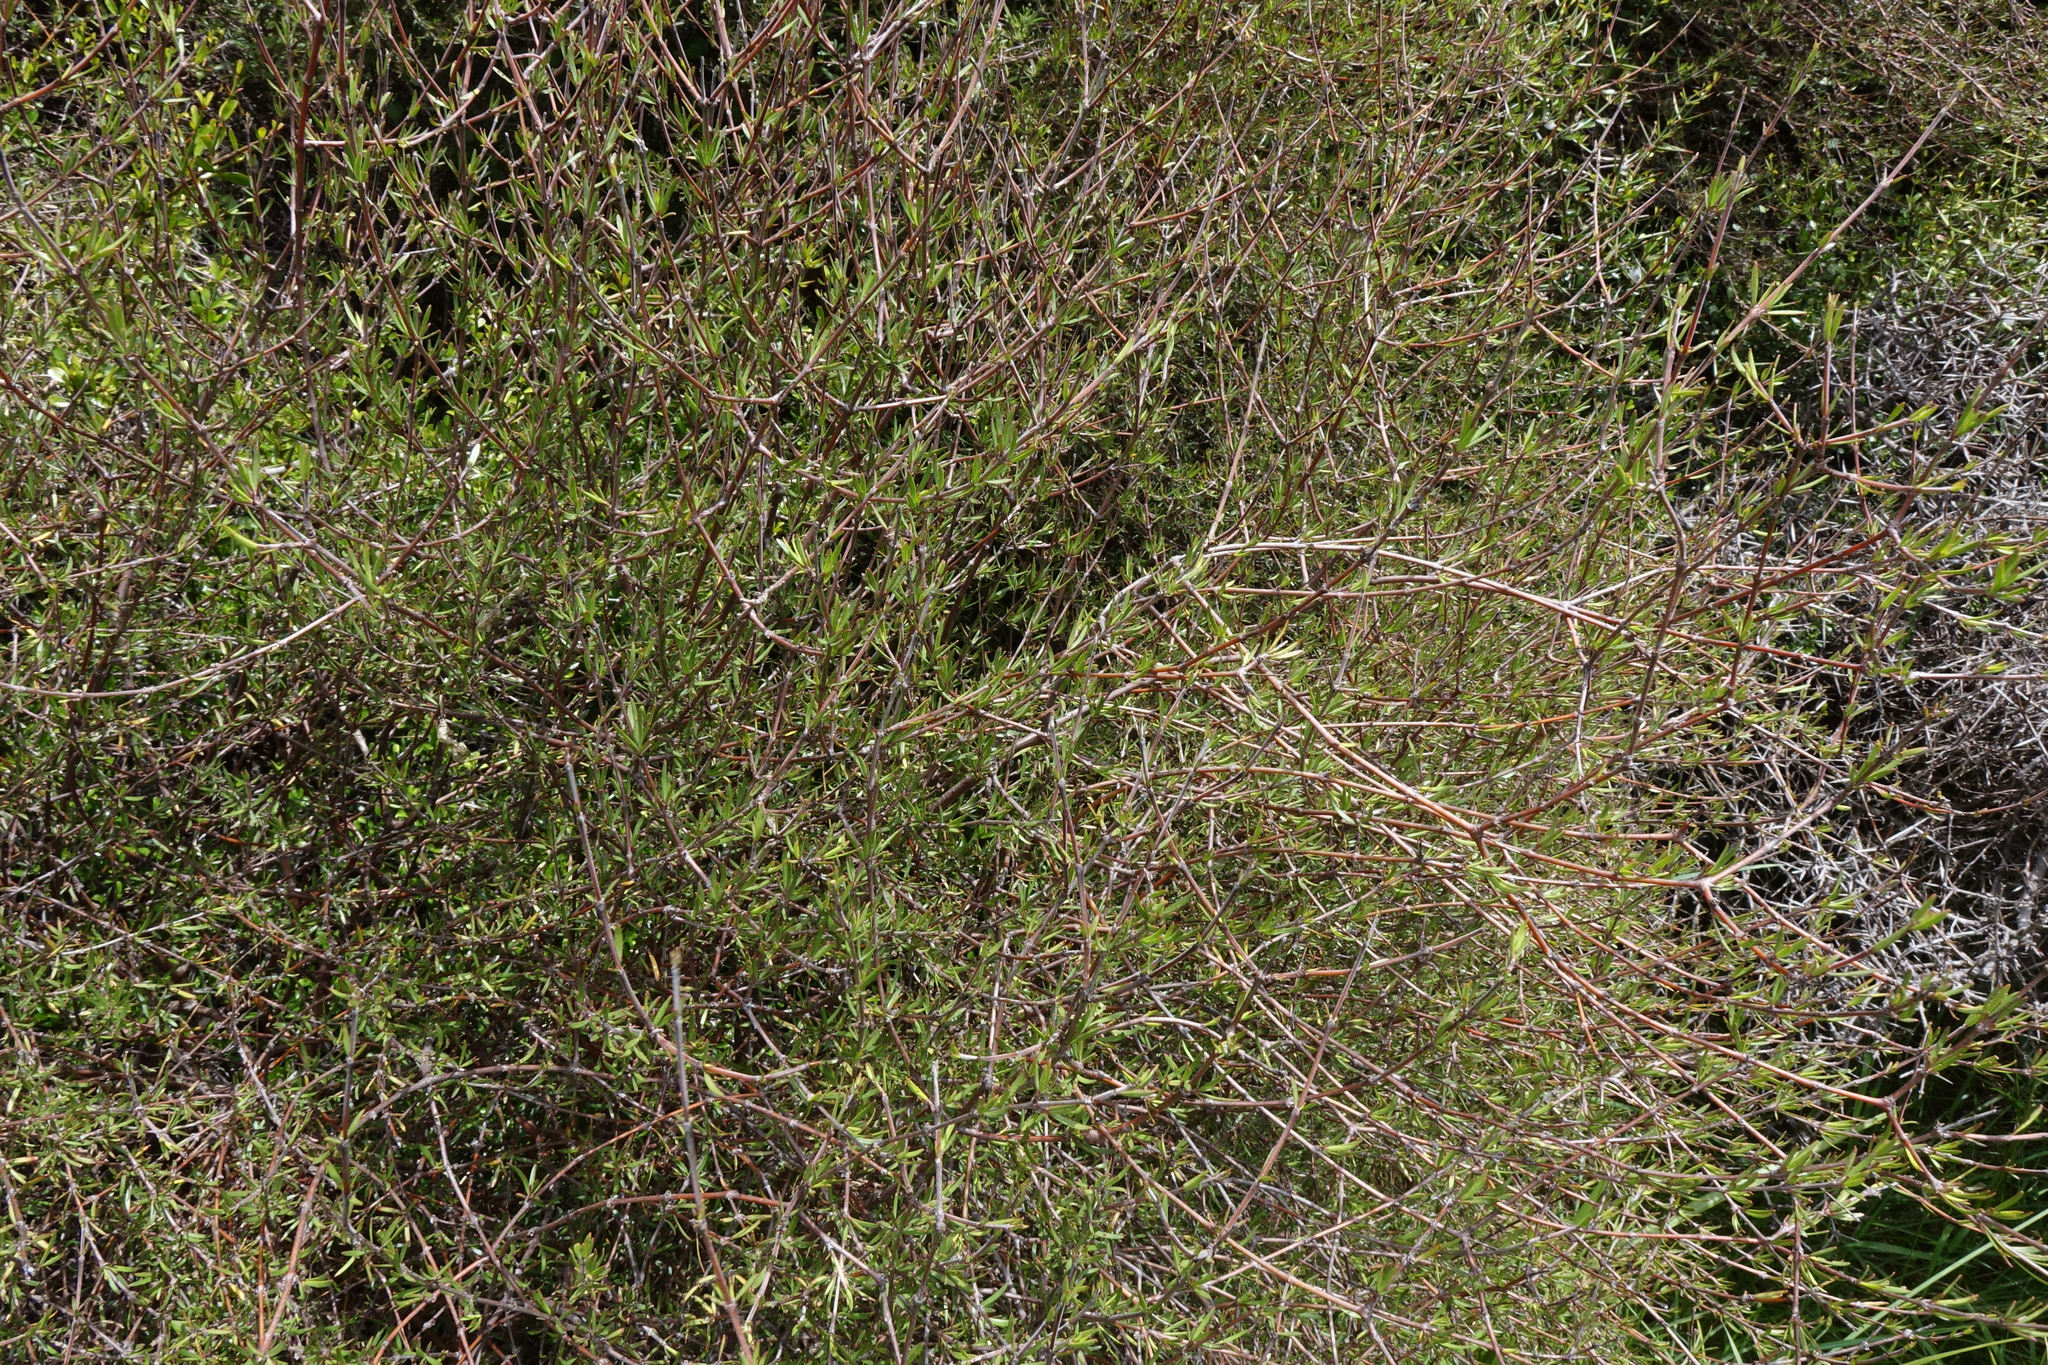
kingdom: Plantae
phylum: Tracheophyta
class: Magnoliopsida
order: Gentianales
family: Rubiaceae
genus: Coprosma
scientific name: Coprosma intertexta
